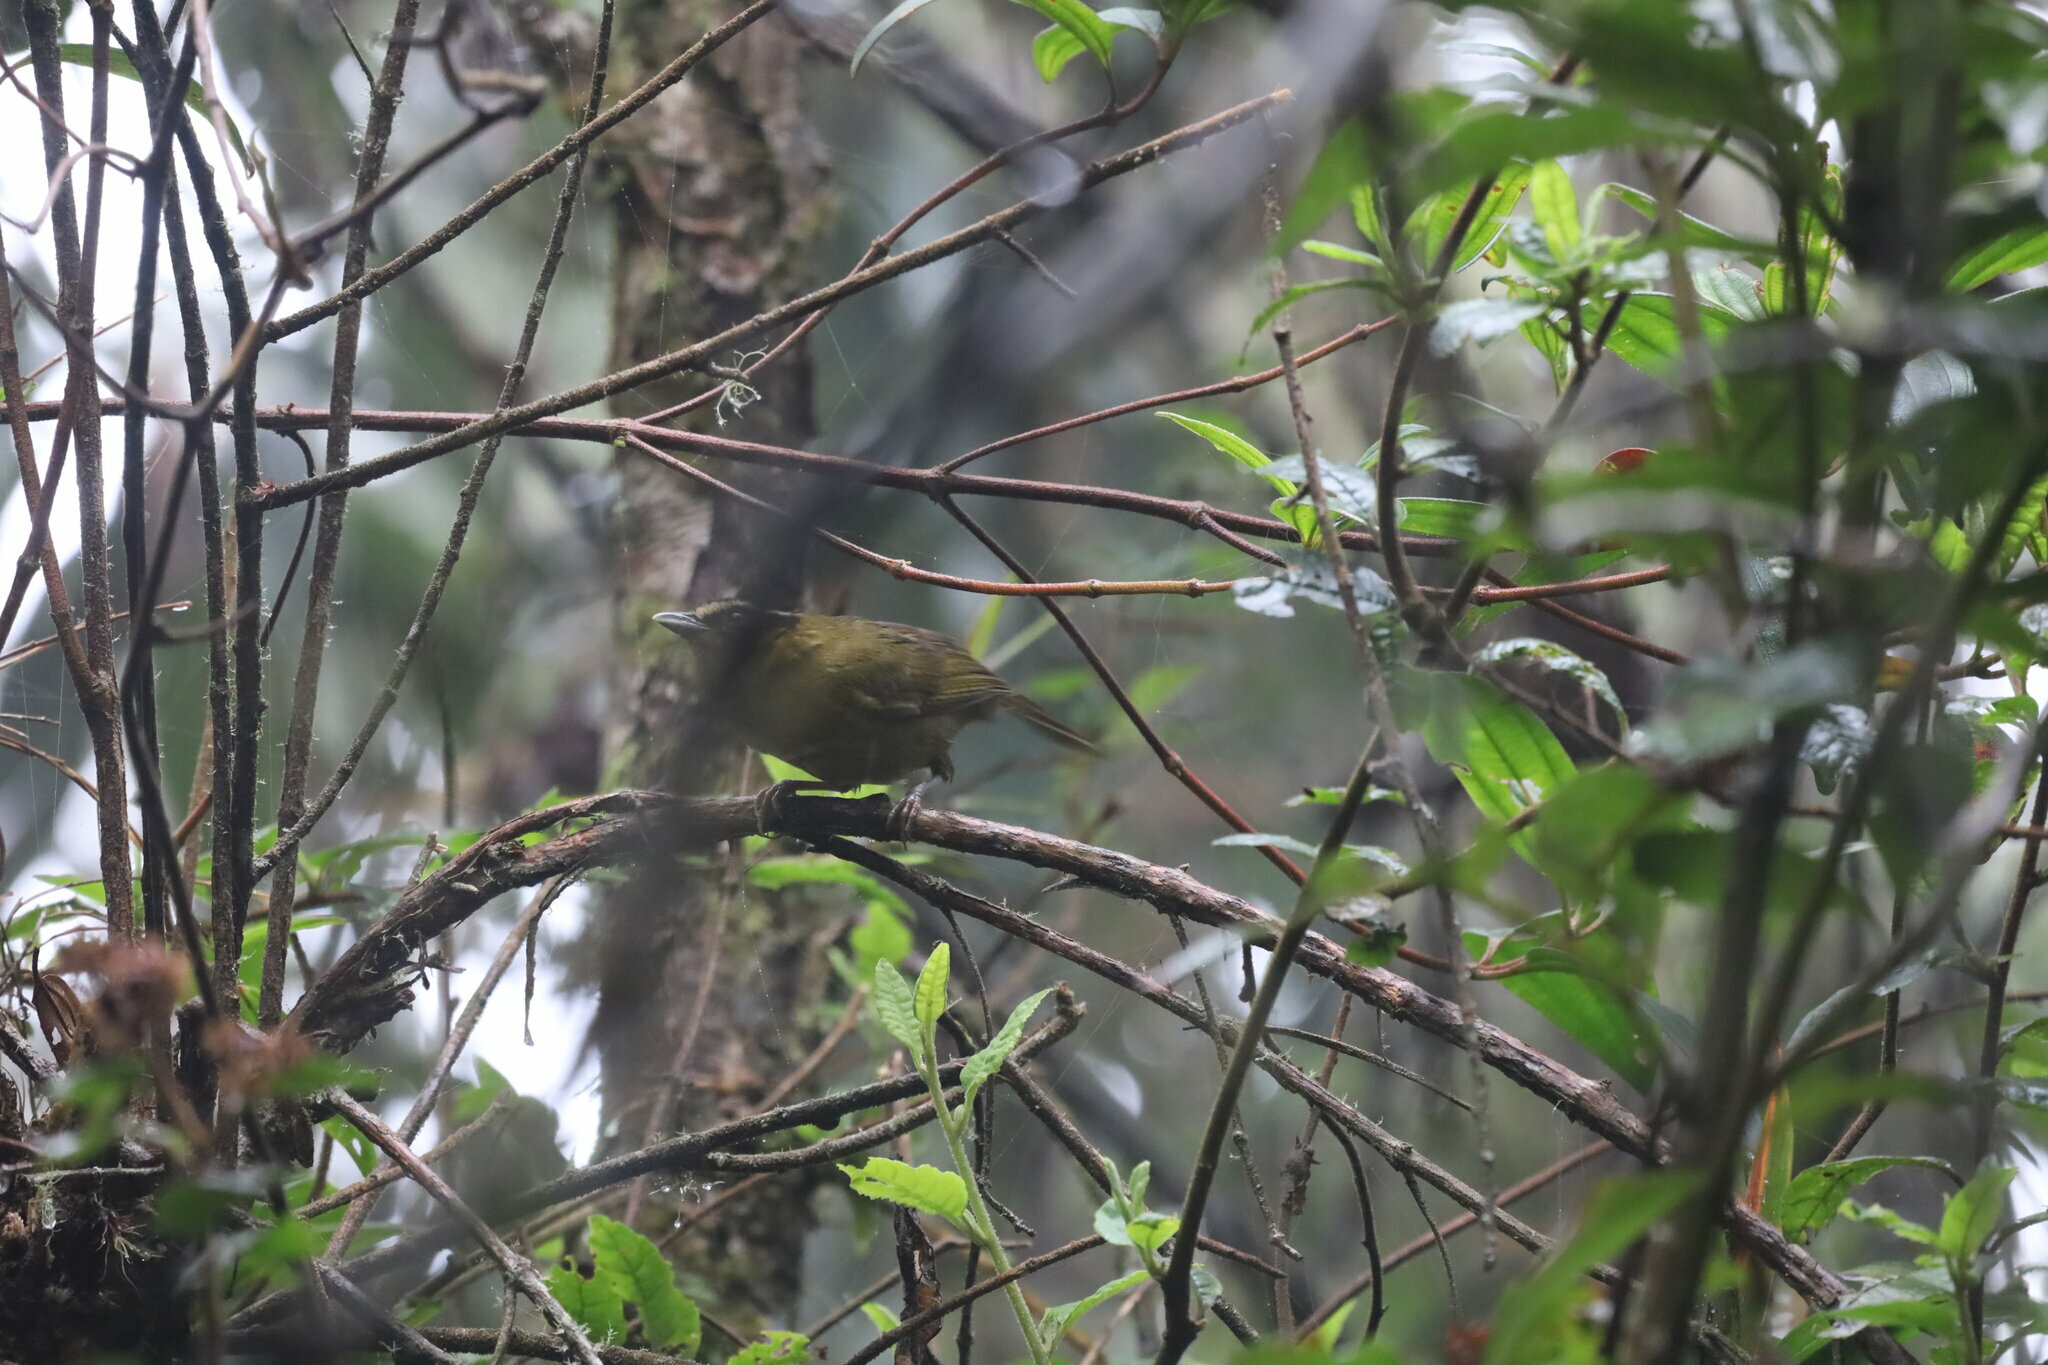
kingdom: Animalia
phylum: Chordata
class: Aves
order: Passeriformes
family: Thraupidae
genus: Kleinothraupis
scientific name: Kleinothraupis atropileus
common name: Black-capped hemispingus
